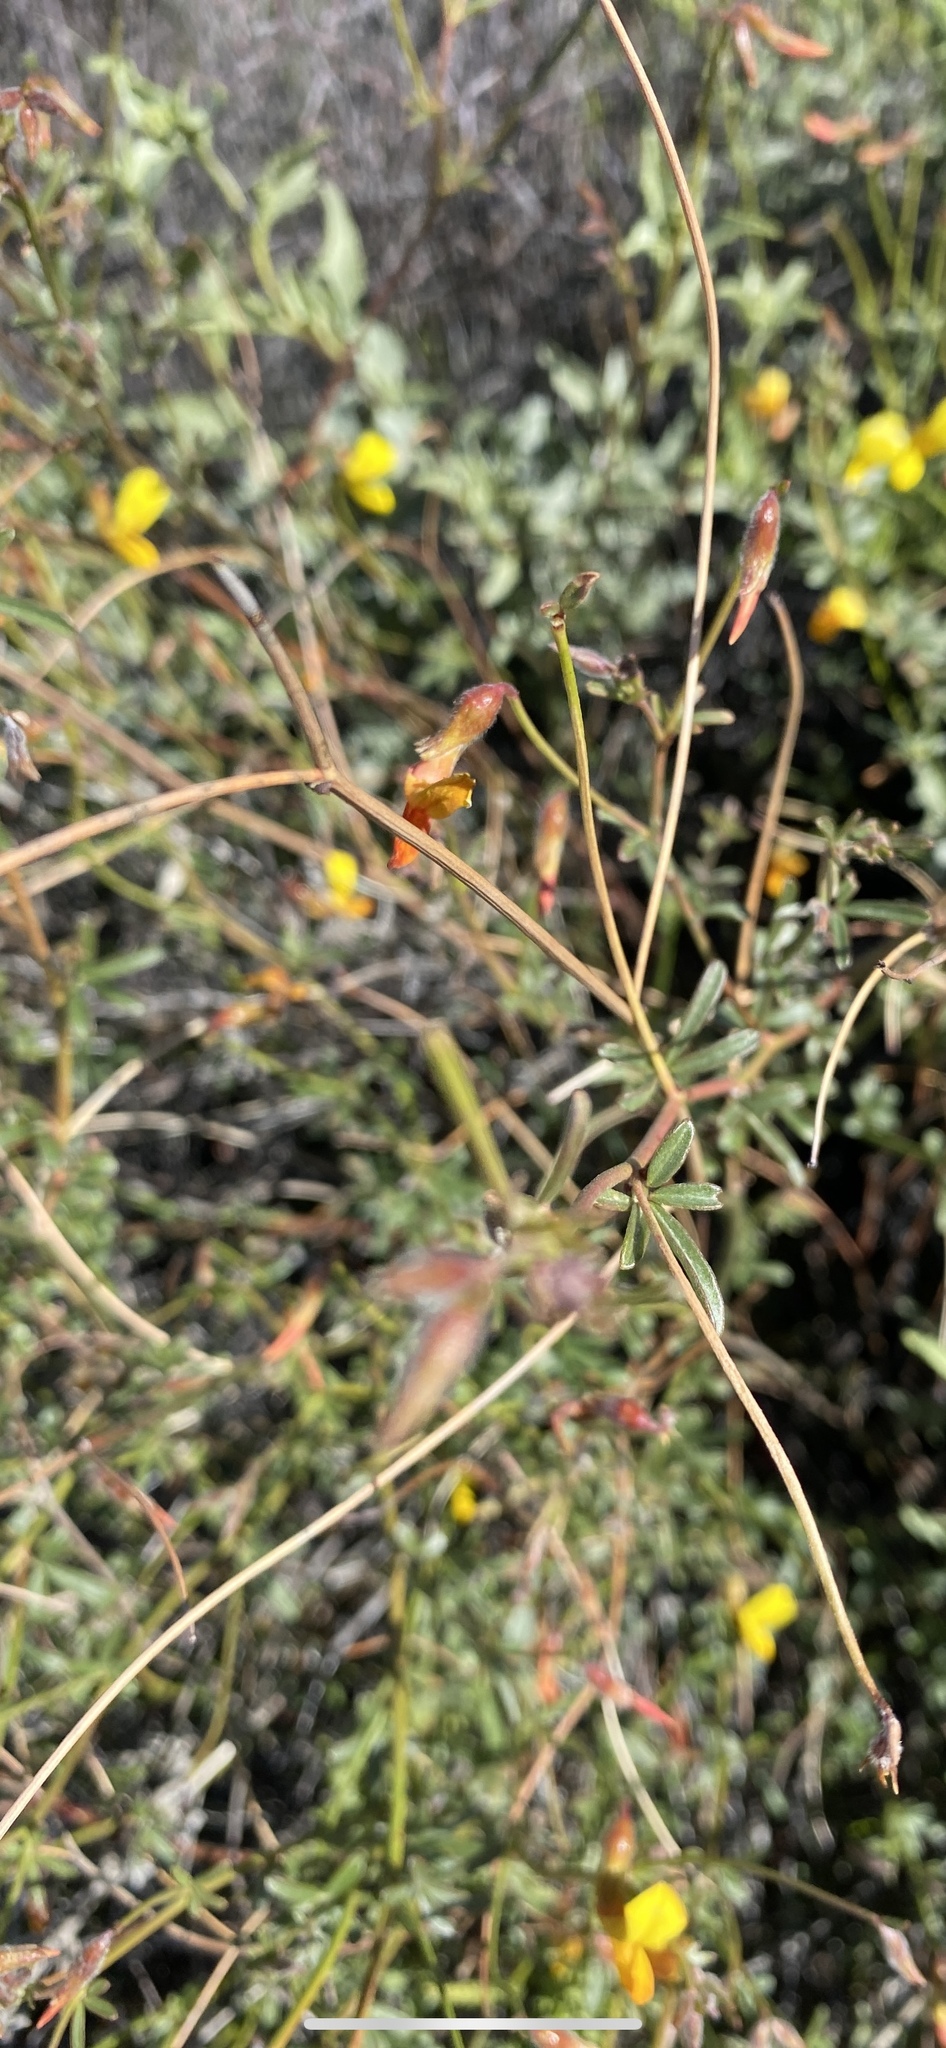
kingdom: Plantae
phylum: Tracheophyta
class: Magnoliopsida
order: Fabales
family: Fabaceae
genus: Acmispon
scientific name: Acmispon rigidus
